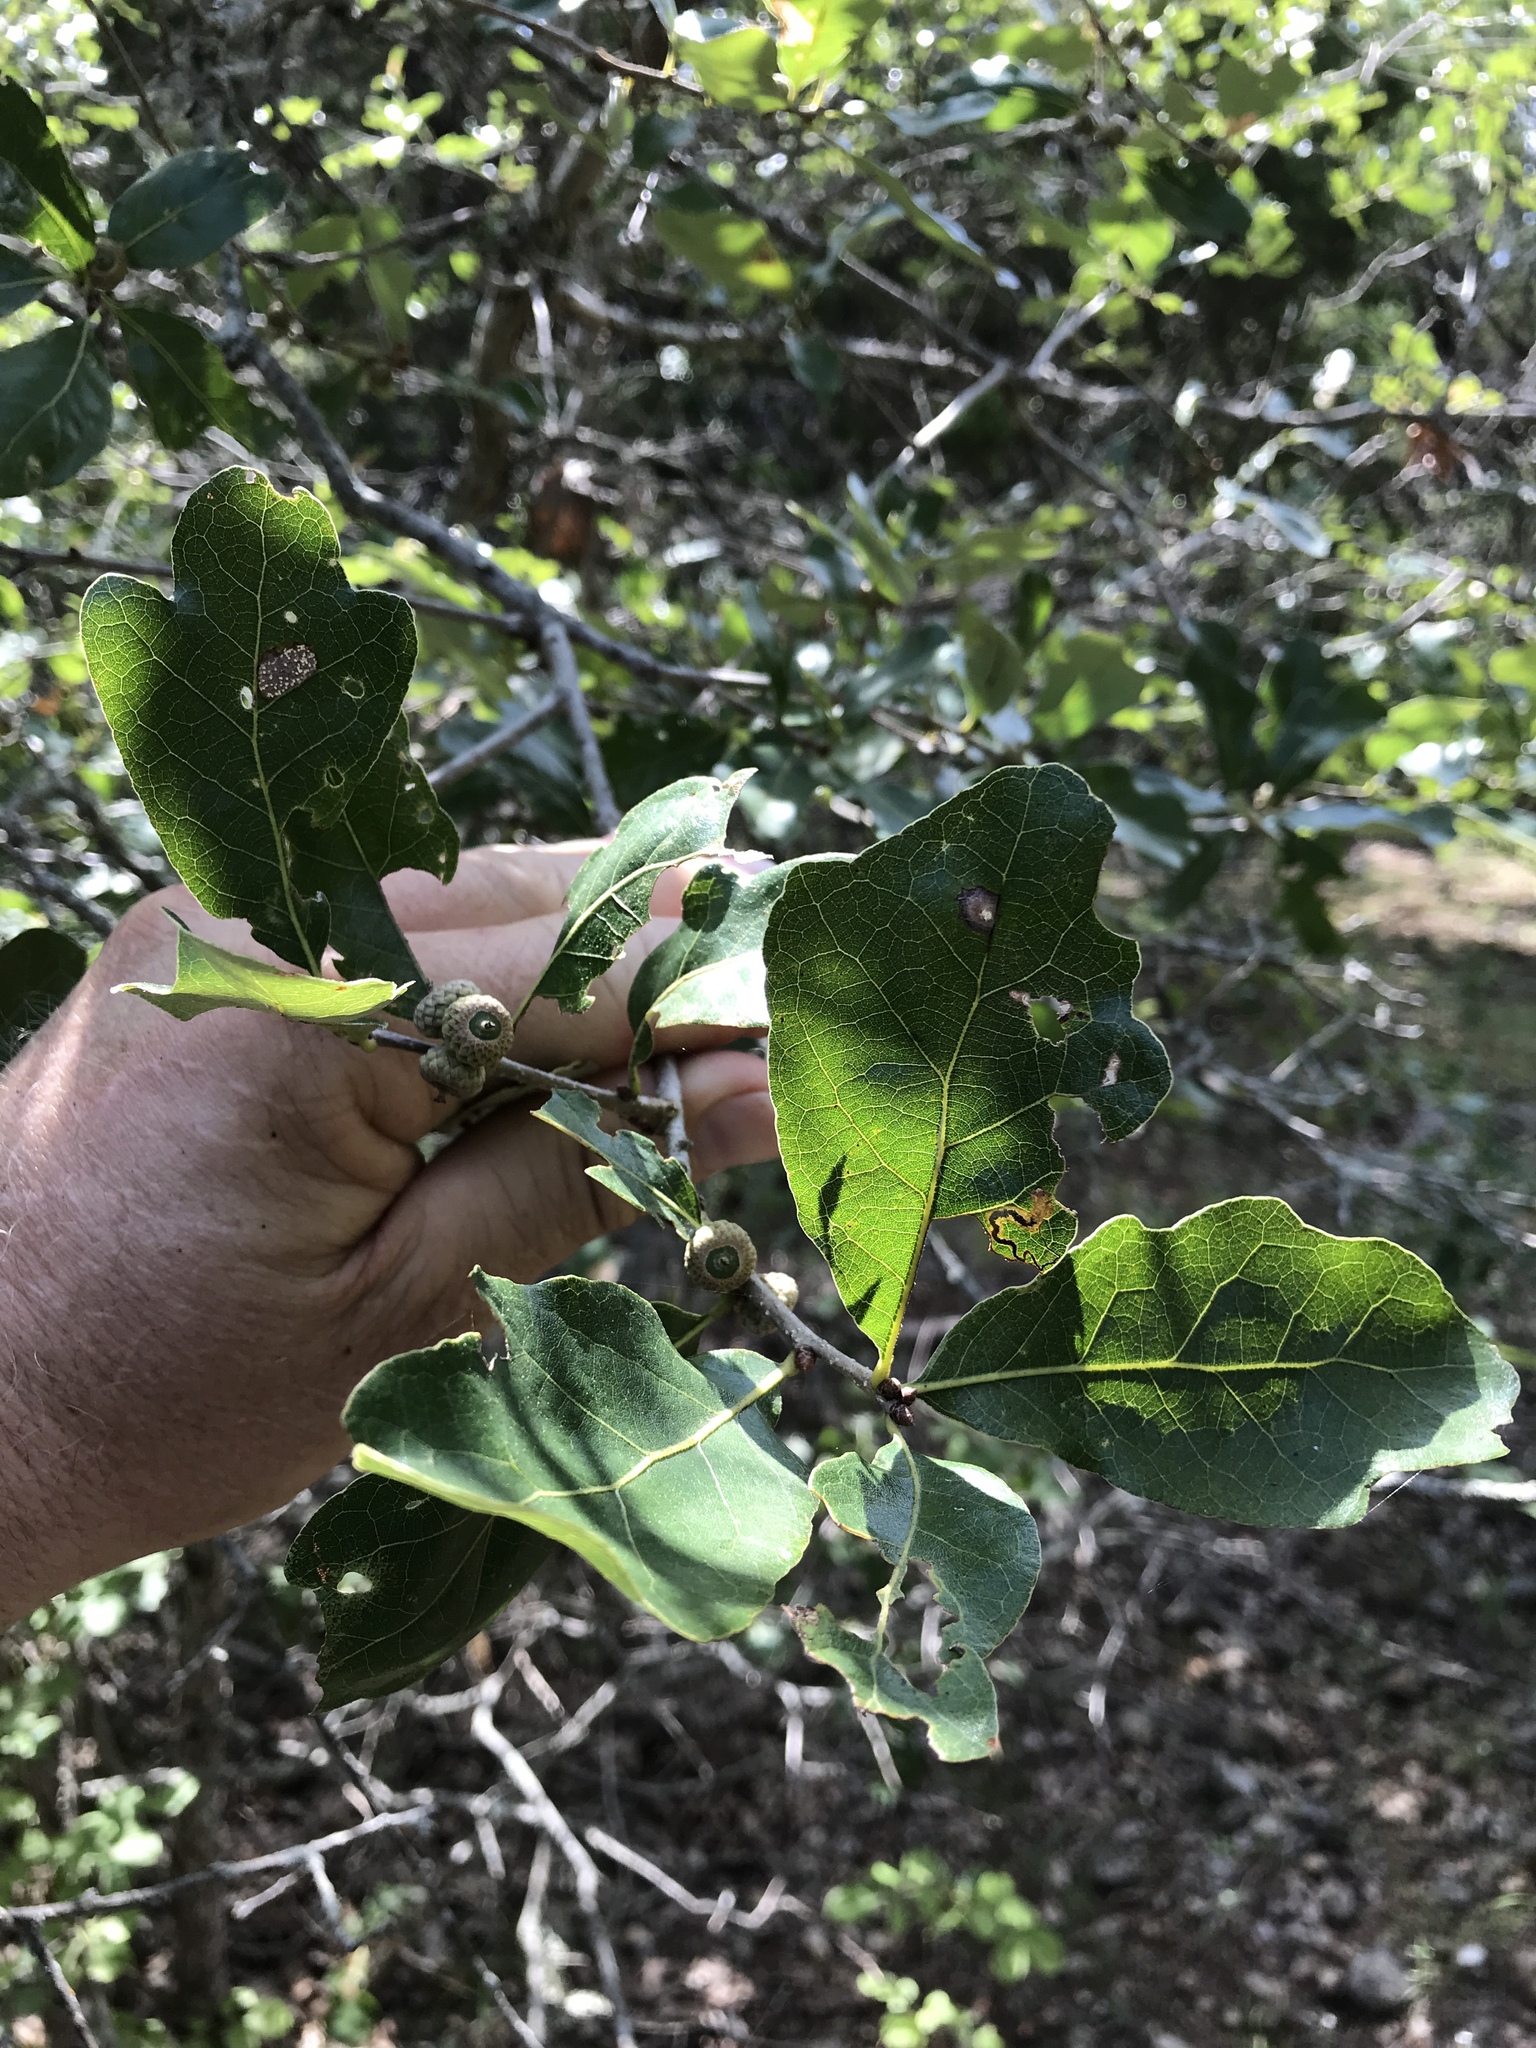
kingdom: Plantae
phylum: Tracheophyta
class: Magnoliopsida
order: Fagales
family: Fagaceae
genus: Quercus
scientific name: Quercus sinuata
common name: Durand oak
